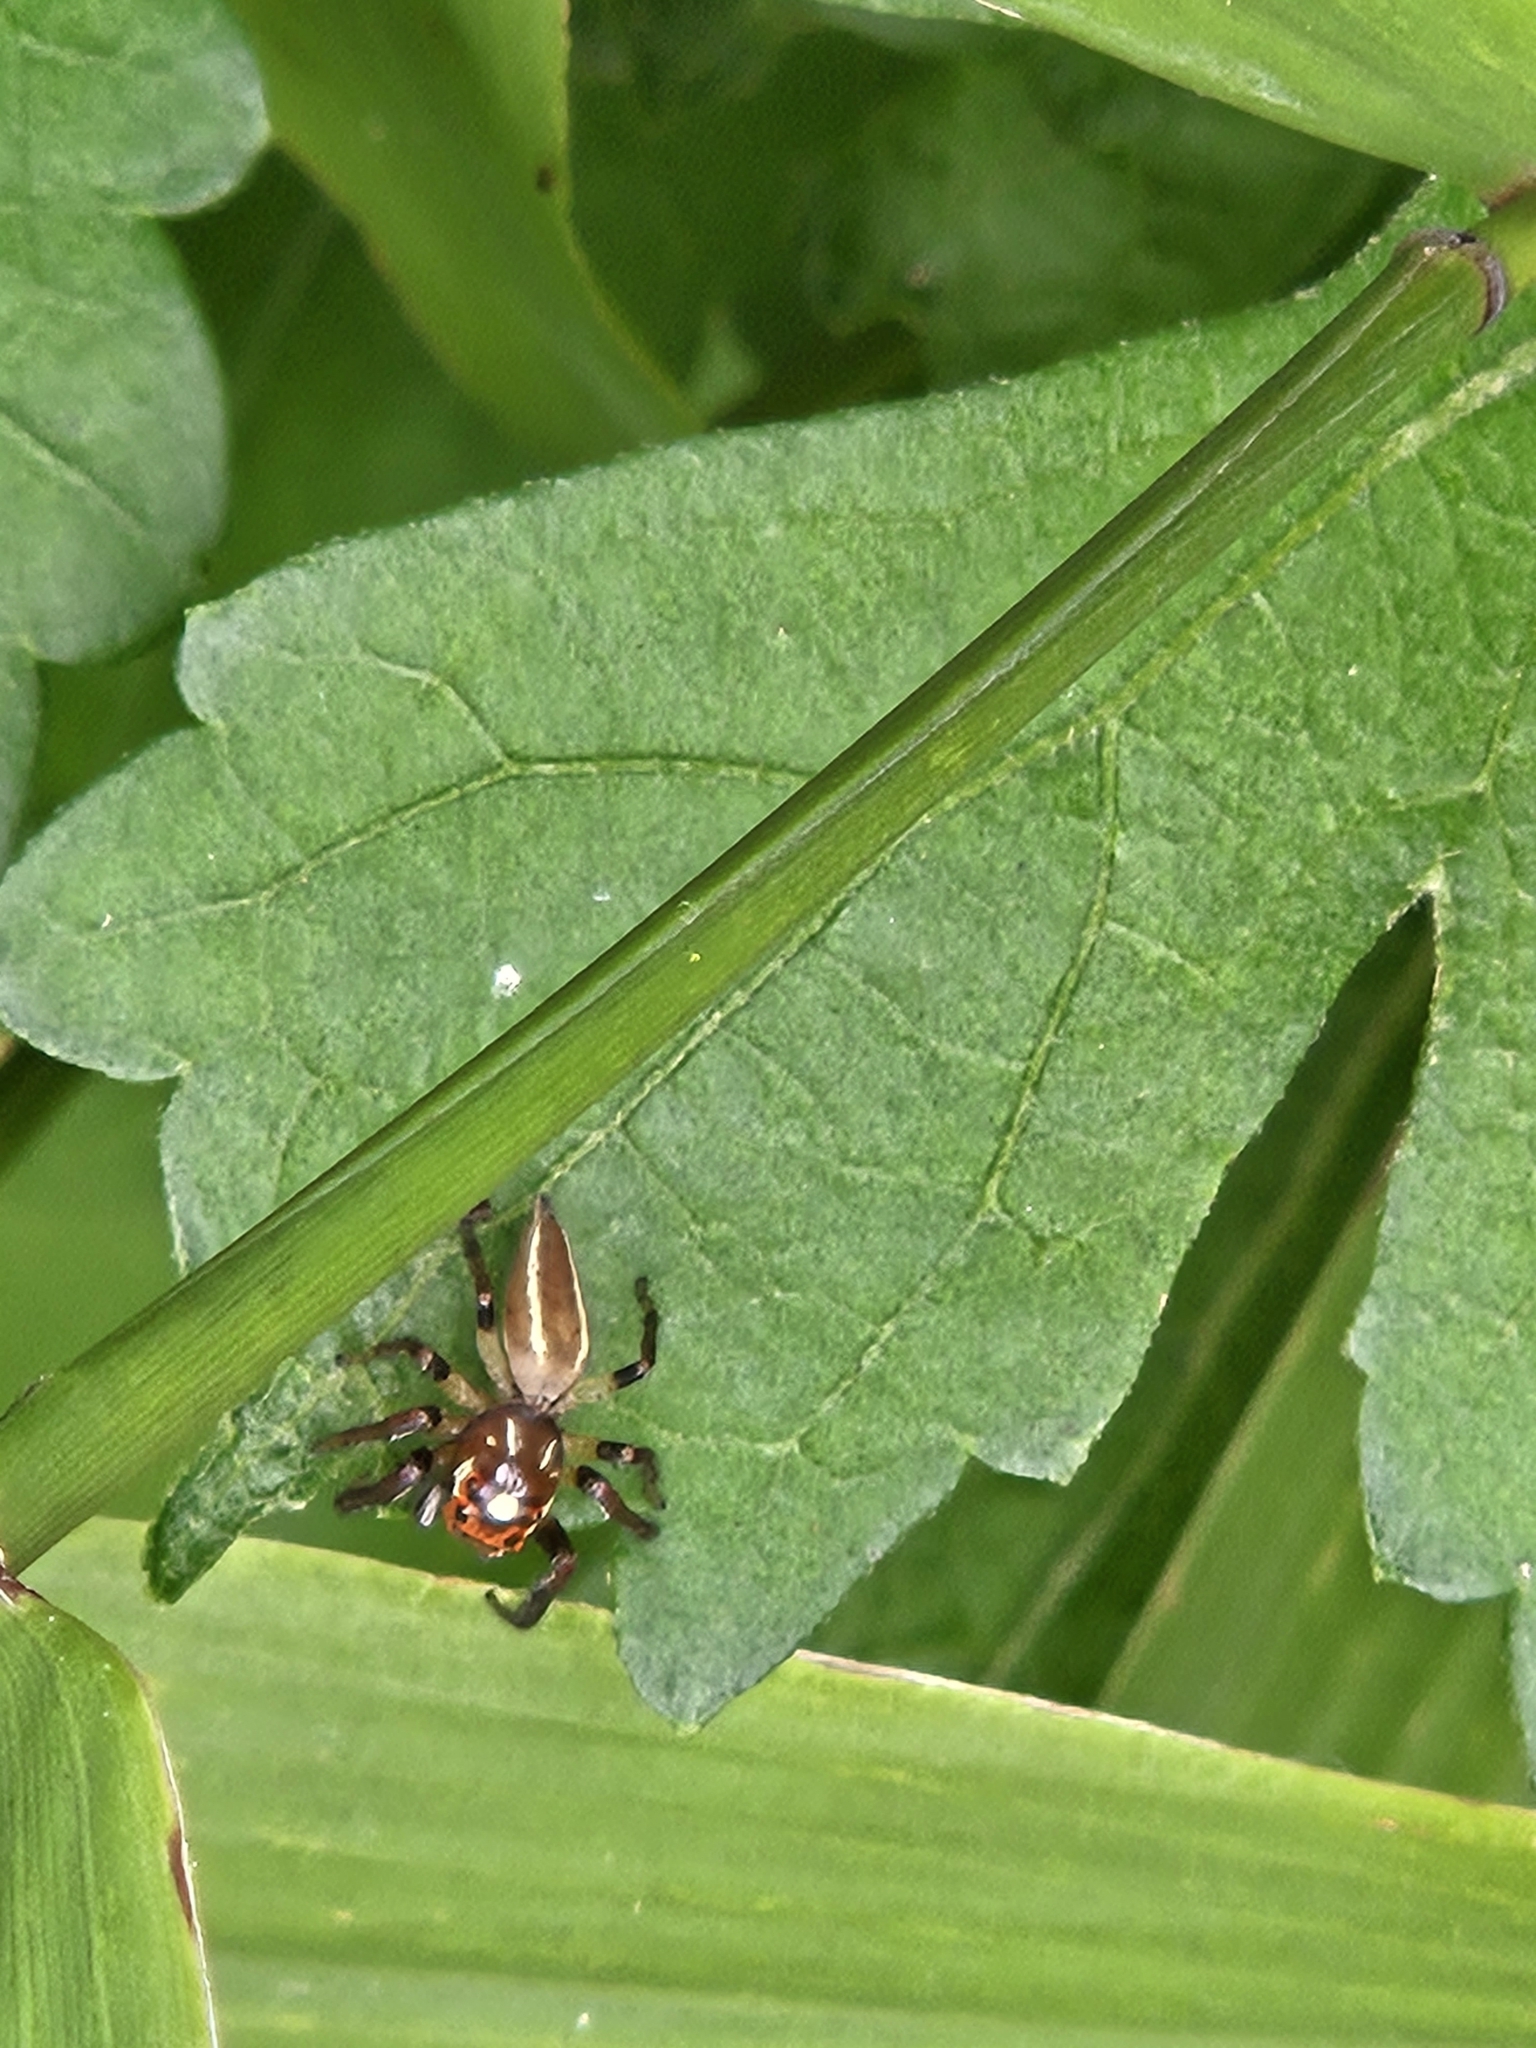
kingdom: Animalia
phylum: Arthropoda
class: Arachnida
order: Araneae
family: Salticidae
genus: Colonus
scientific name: Colonus sylvanus
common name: Jumping spiders
